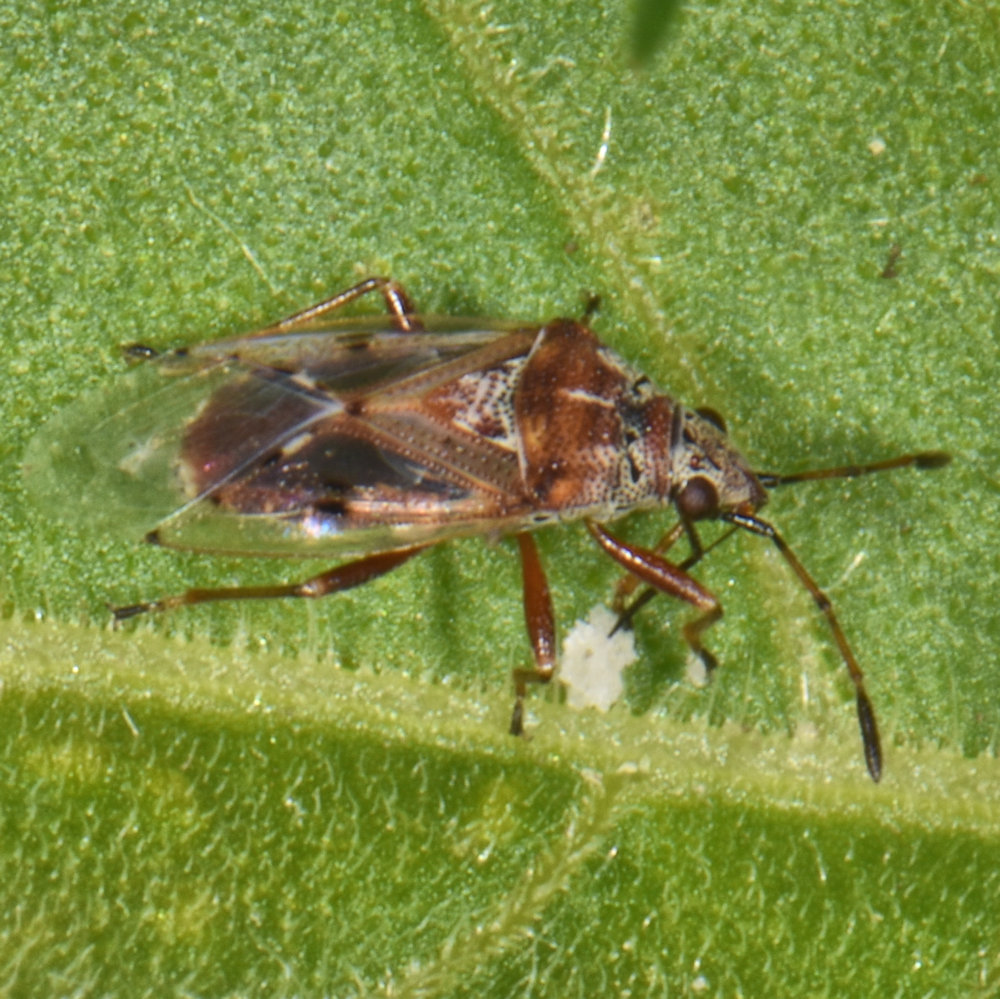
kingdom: Animalia
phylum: Arthropoda
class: Insecta
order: Hemiptera
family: Lygaeidae
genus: Kleidocerys
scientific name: Kleidocerys resedae
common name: Birch catkin bug
